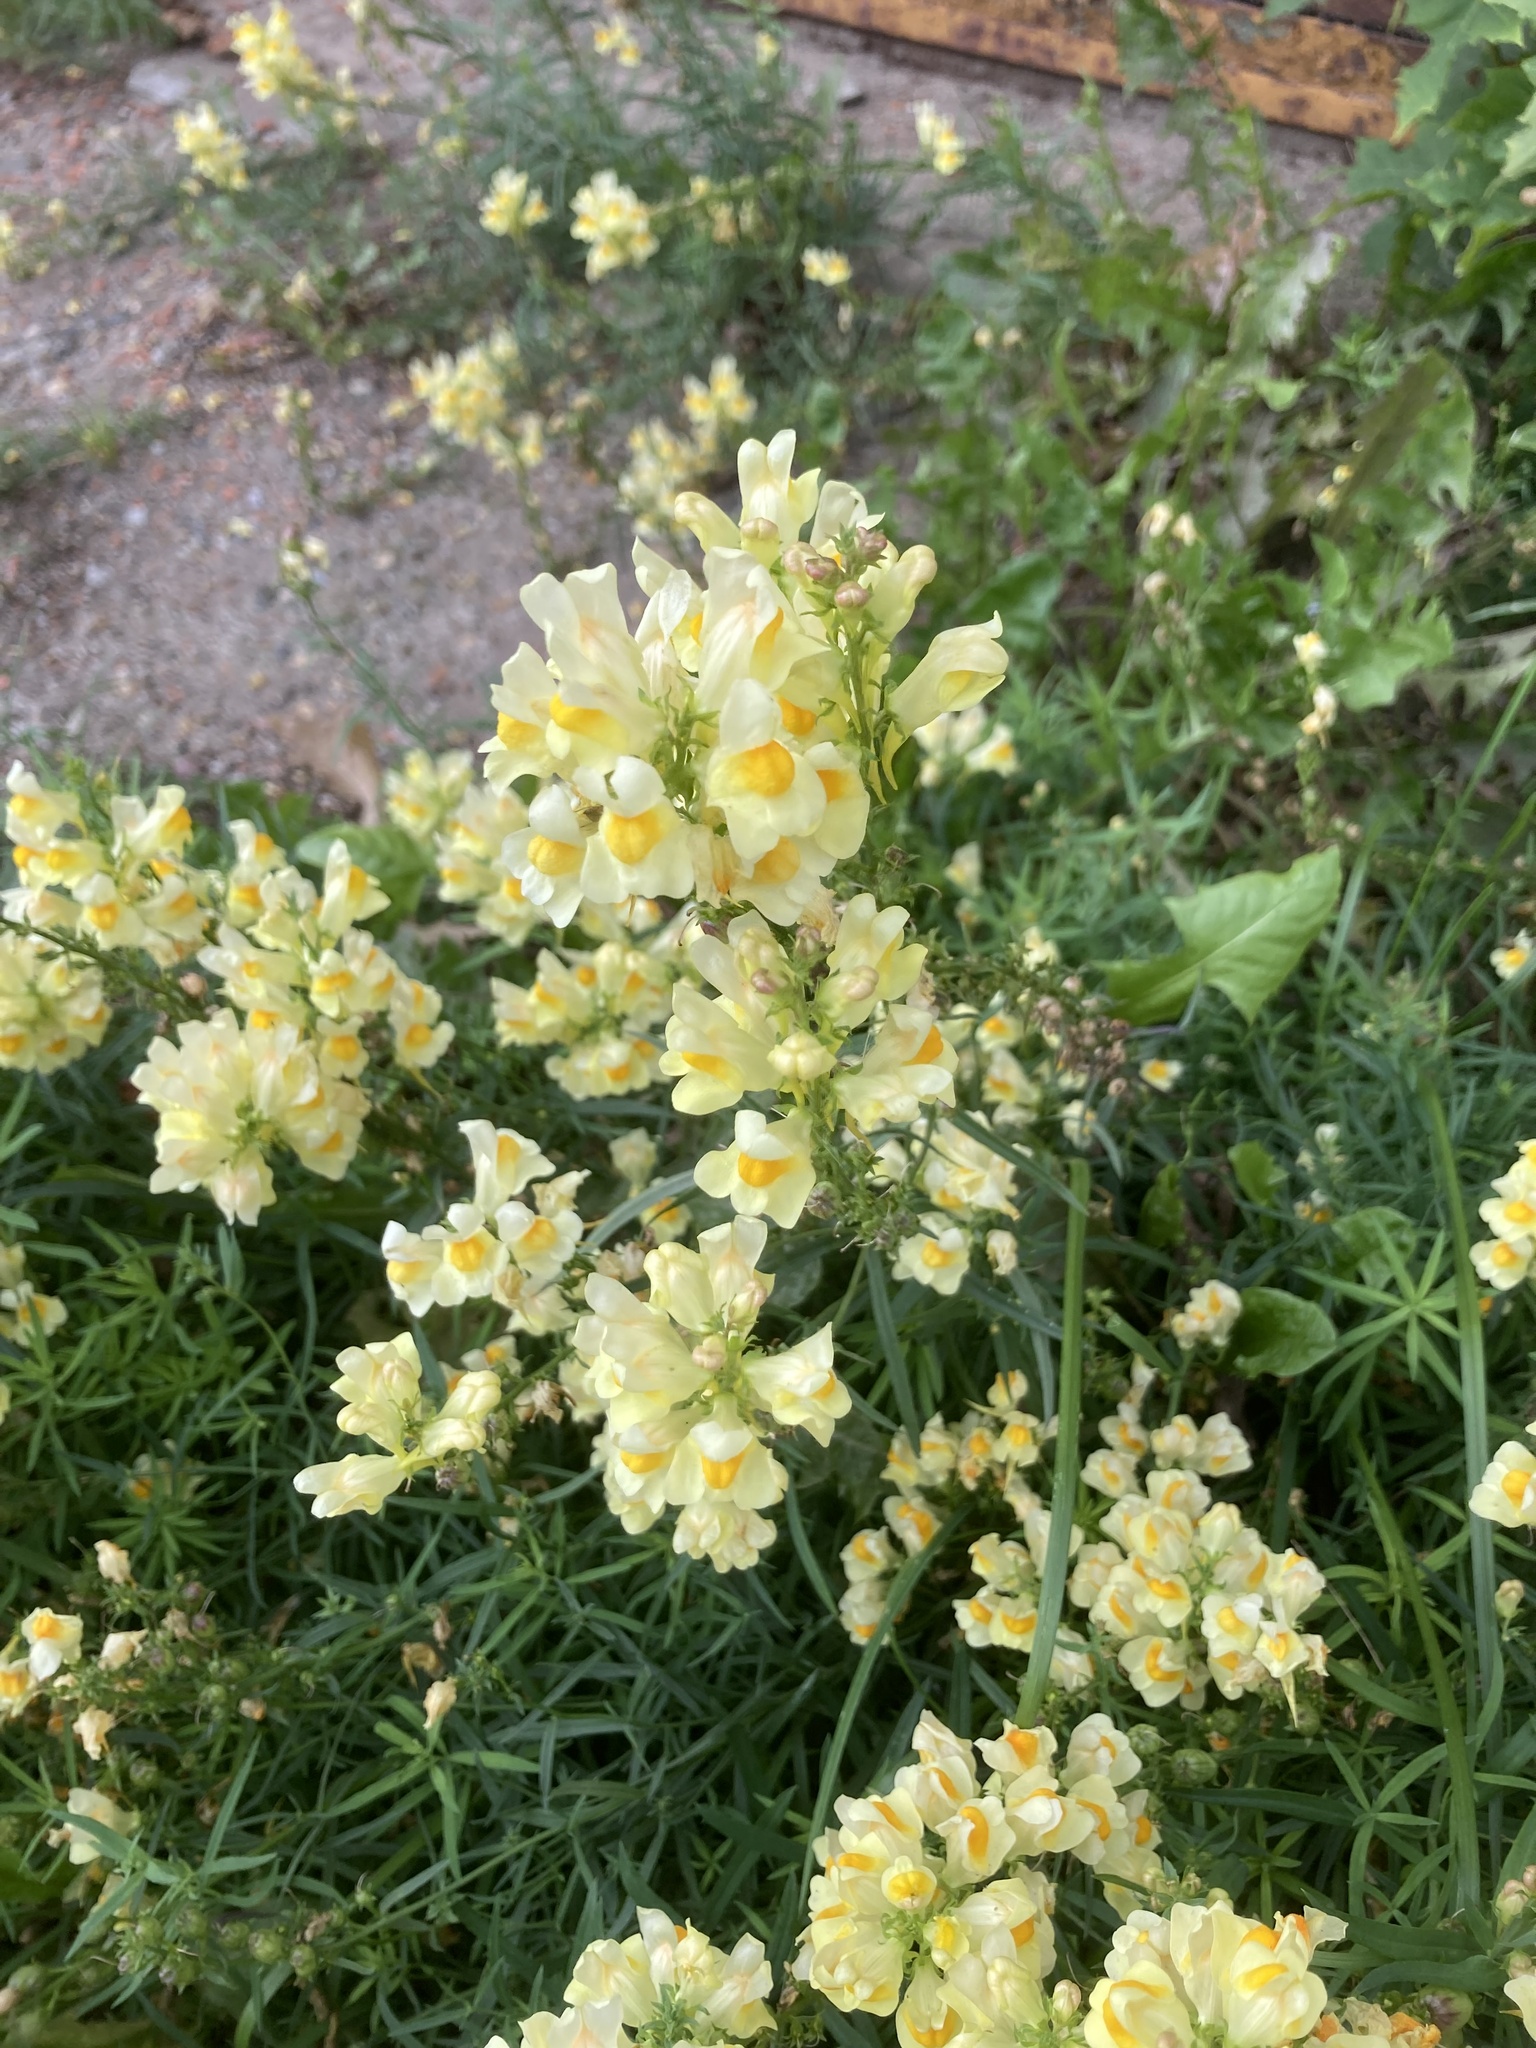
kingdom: Plantae
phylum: Tracheophyta
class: Magnoliopsida
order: Lamiales
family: Plantaginaceae
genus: Linaria
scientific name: Linaria vulgaris
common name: Butter and eggs
